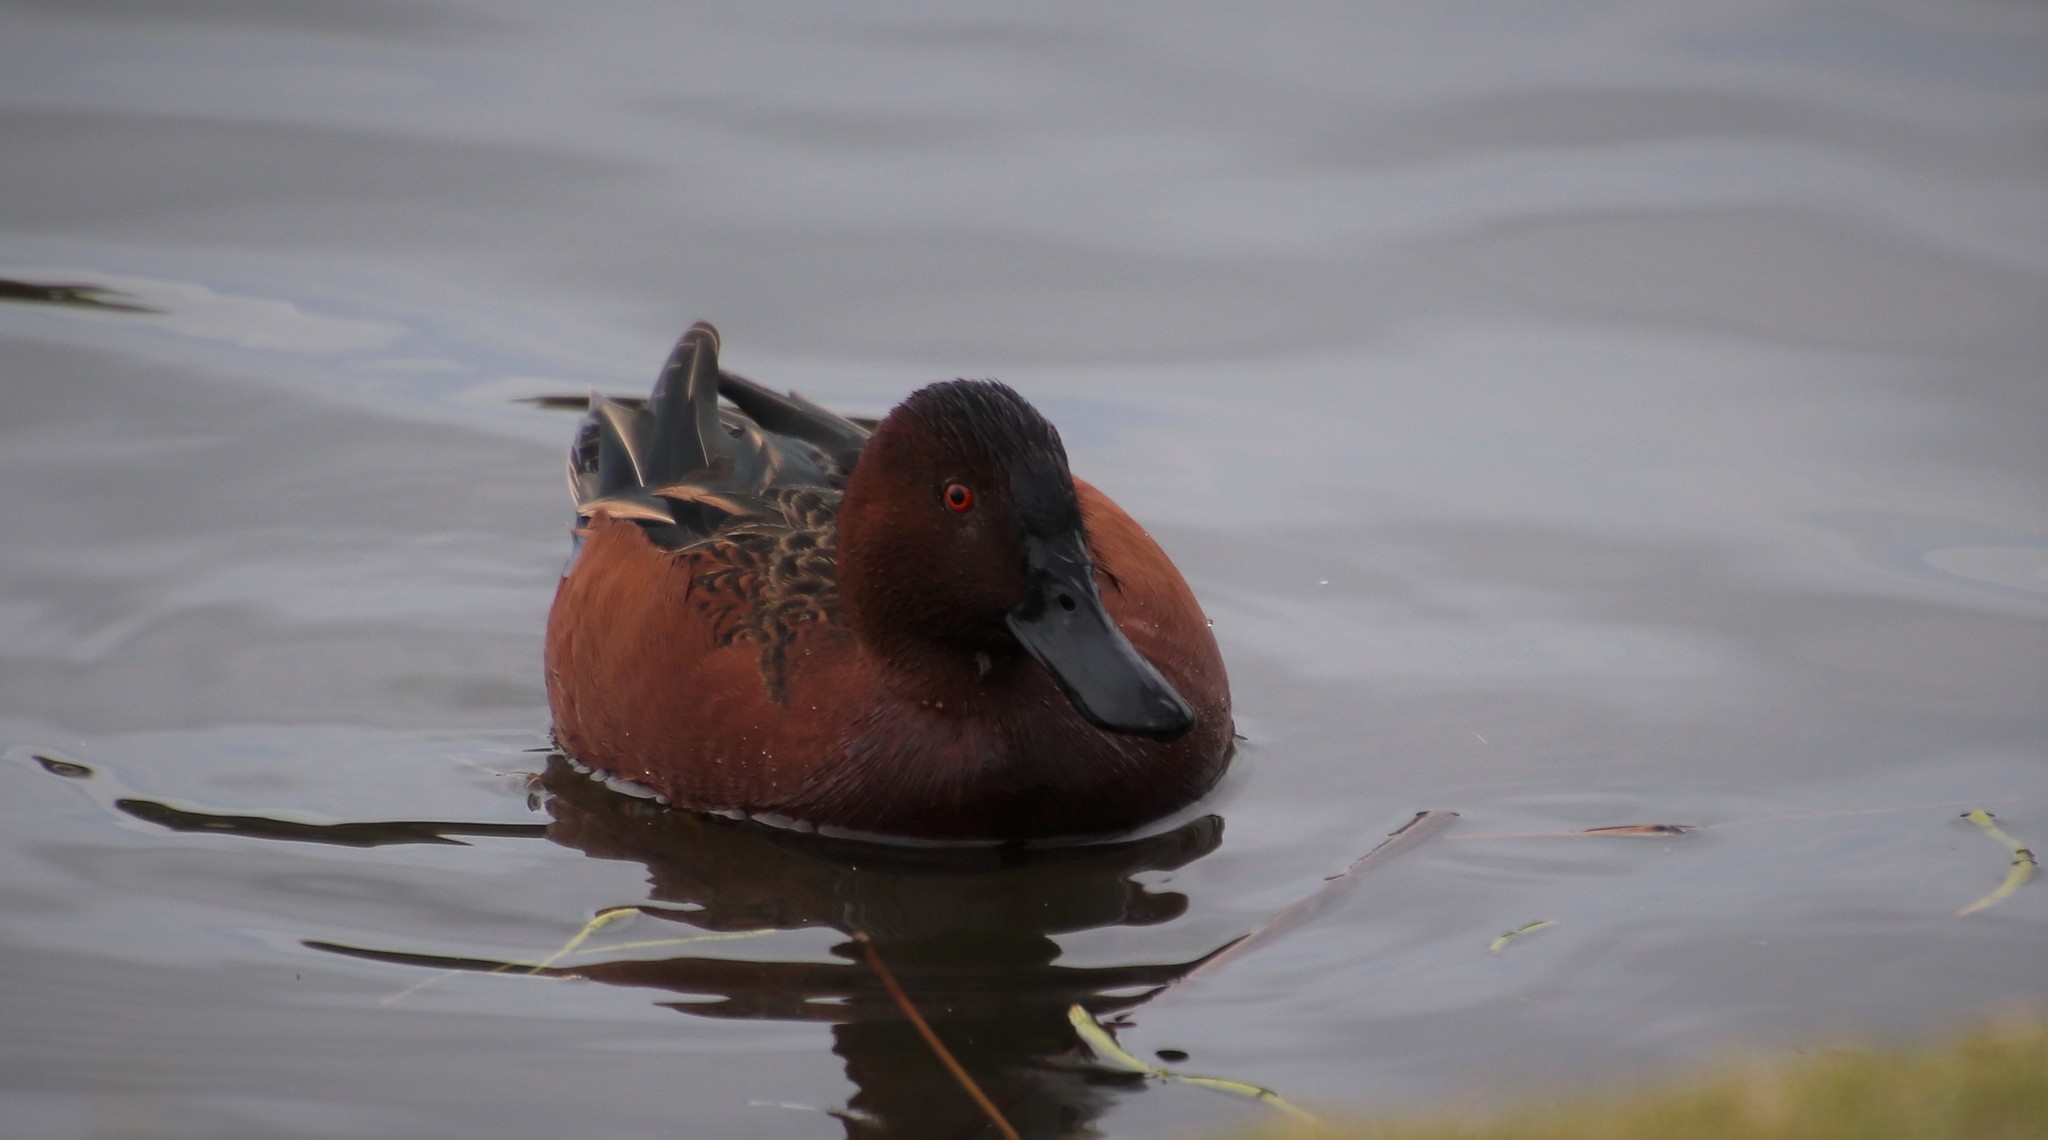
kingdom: Animalia
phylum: Chordata
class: Aves
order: Anseriformes
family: Anatidae
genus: Spatula
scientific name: Spatula cyanoptera
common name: Cinnamon teal
